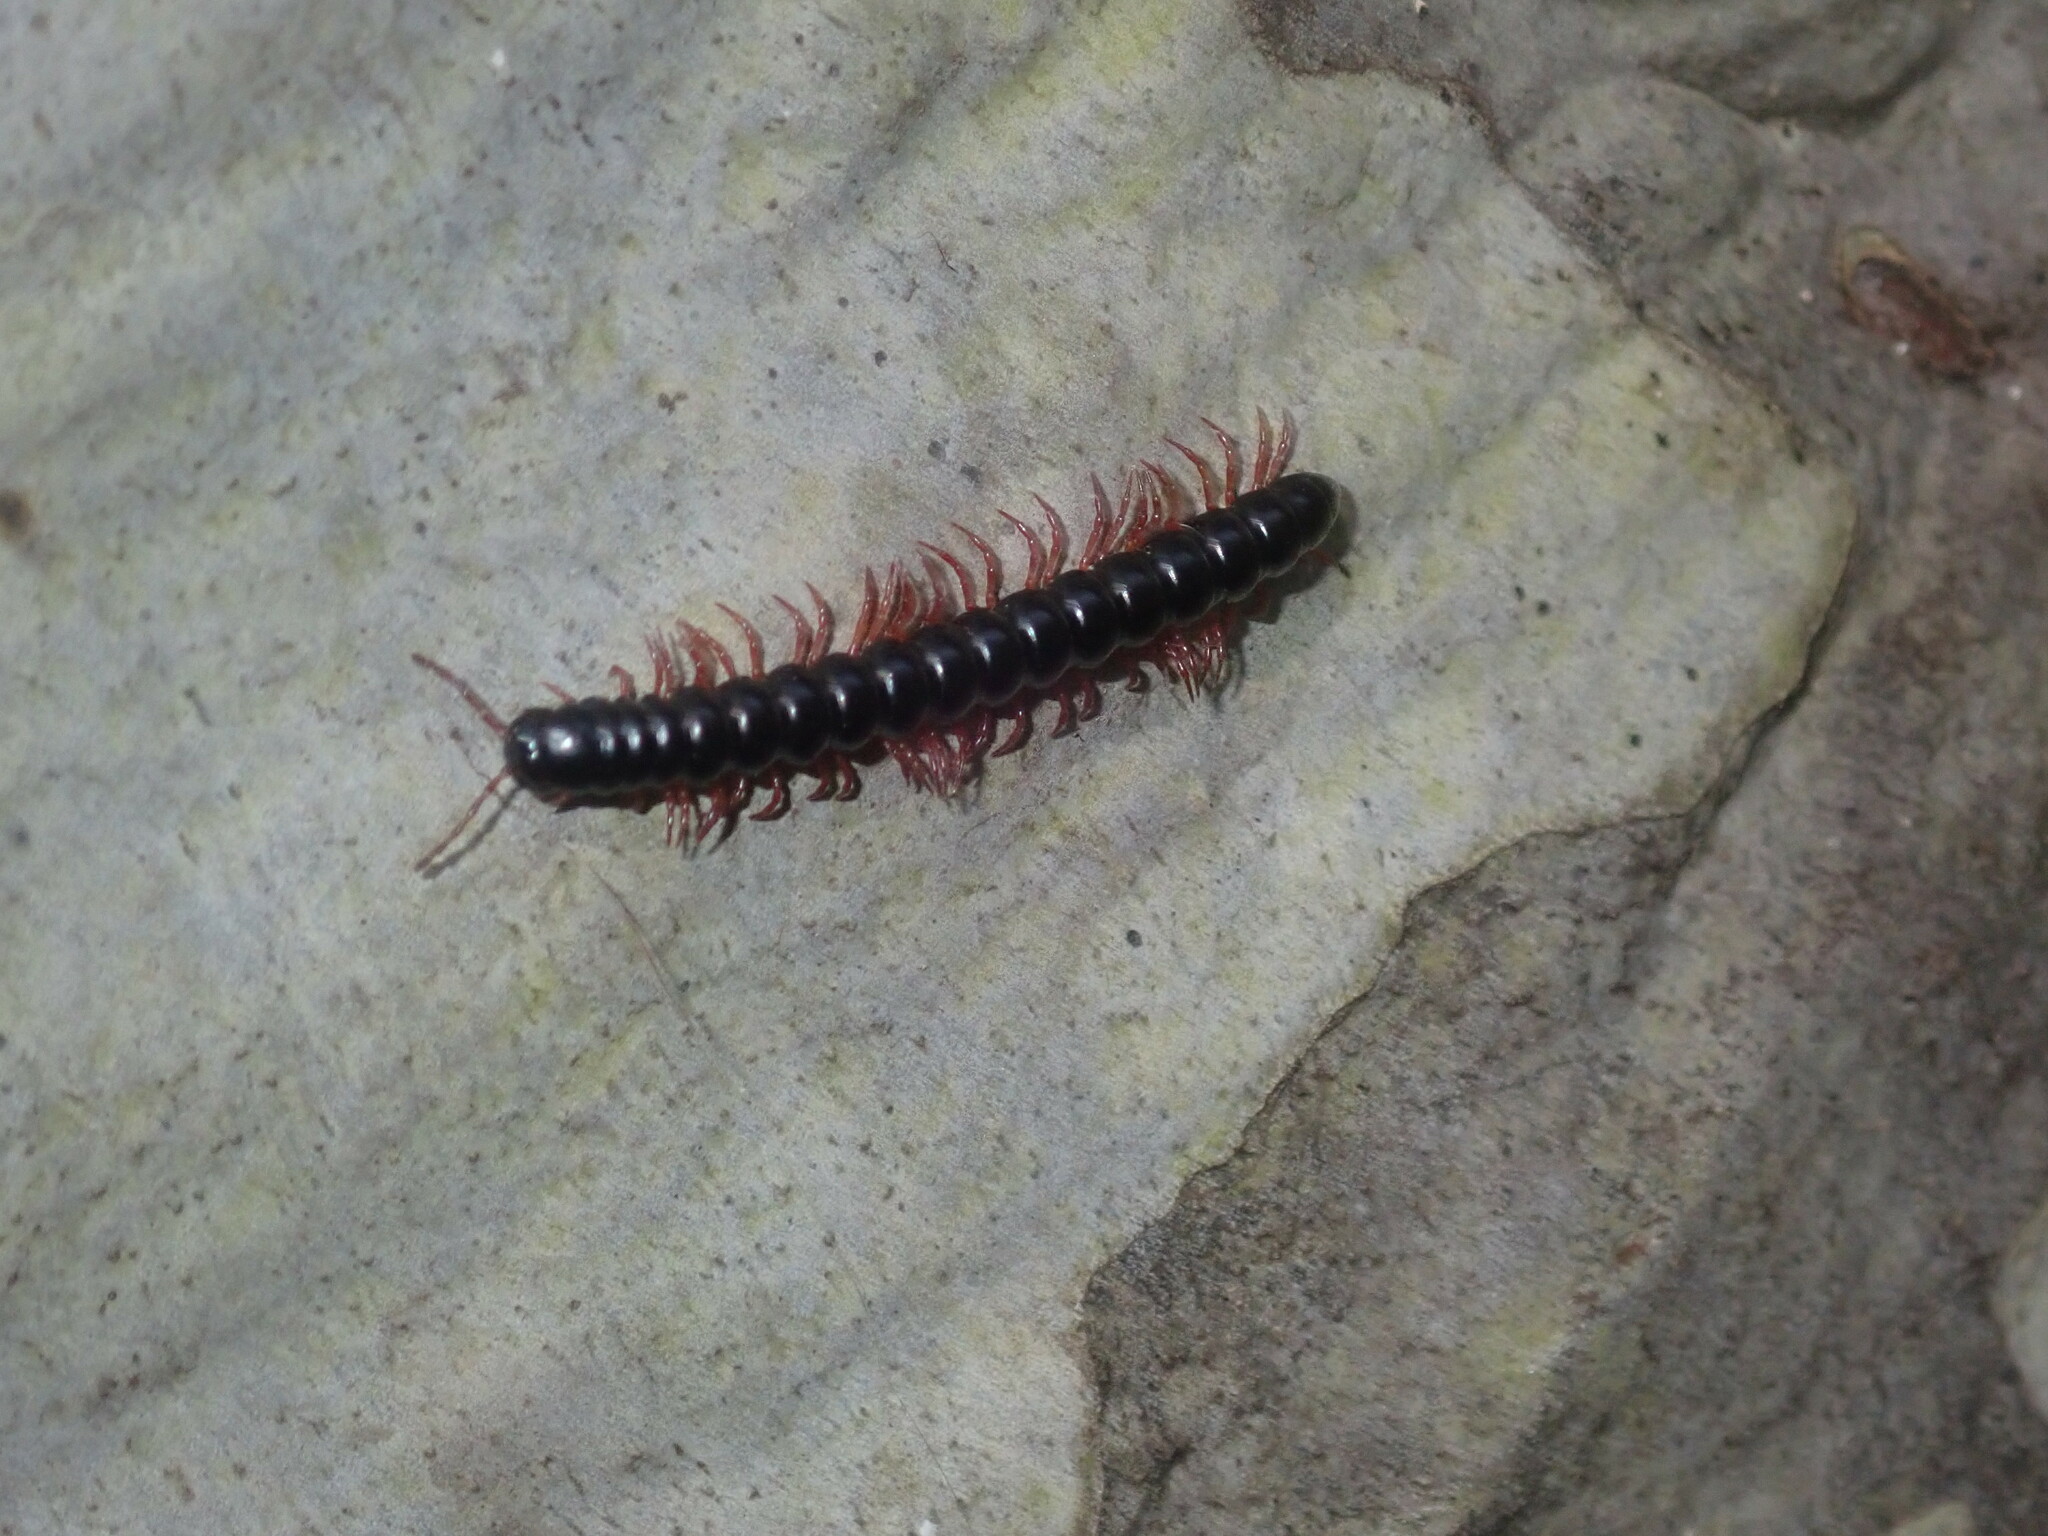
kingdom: Animalia
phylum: Arthropoda
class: Diplopoda
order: Polydesmida
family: Paradoxosomatidae
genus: Heterocladosoma
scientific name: Heterocladosoma
